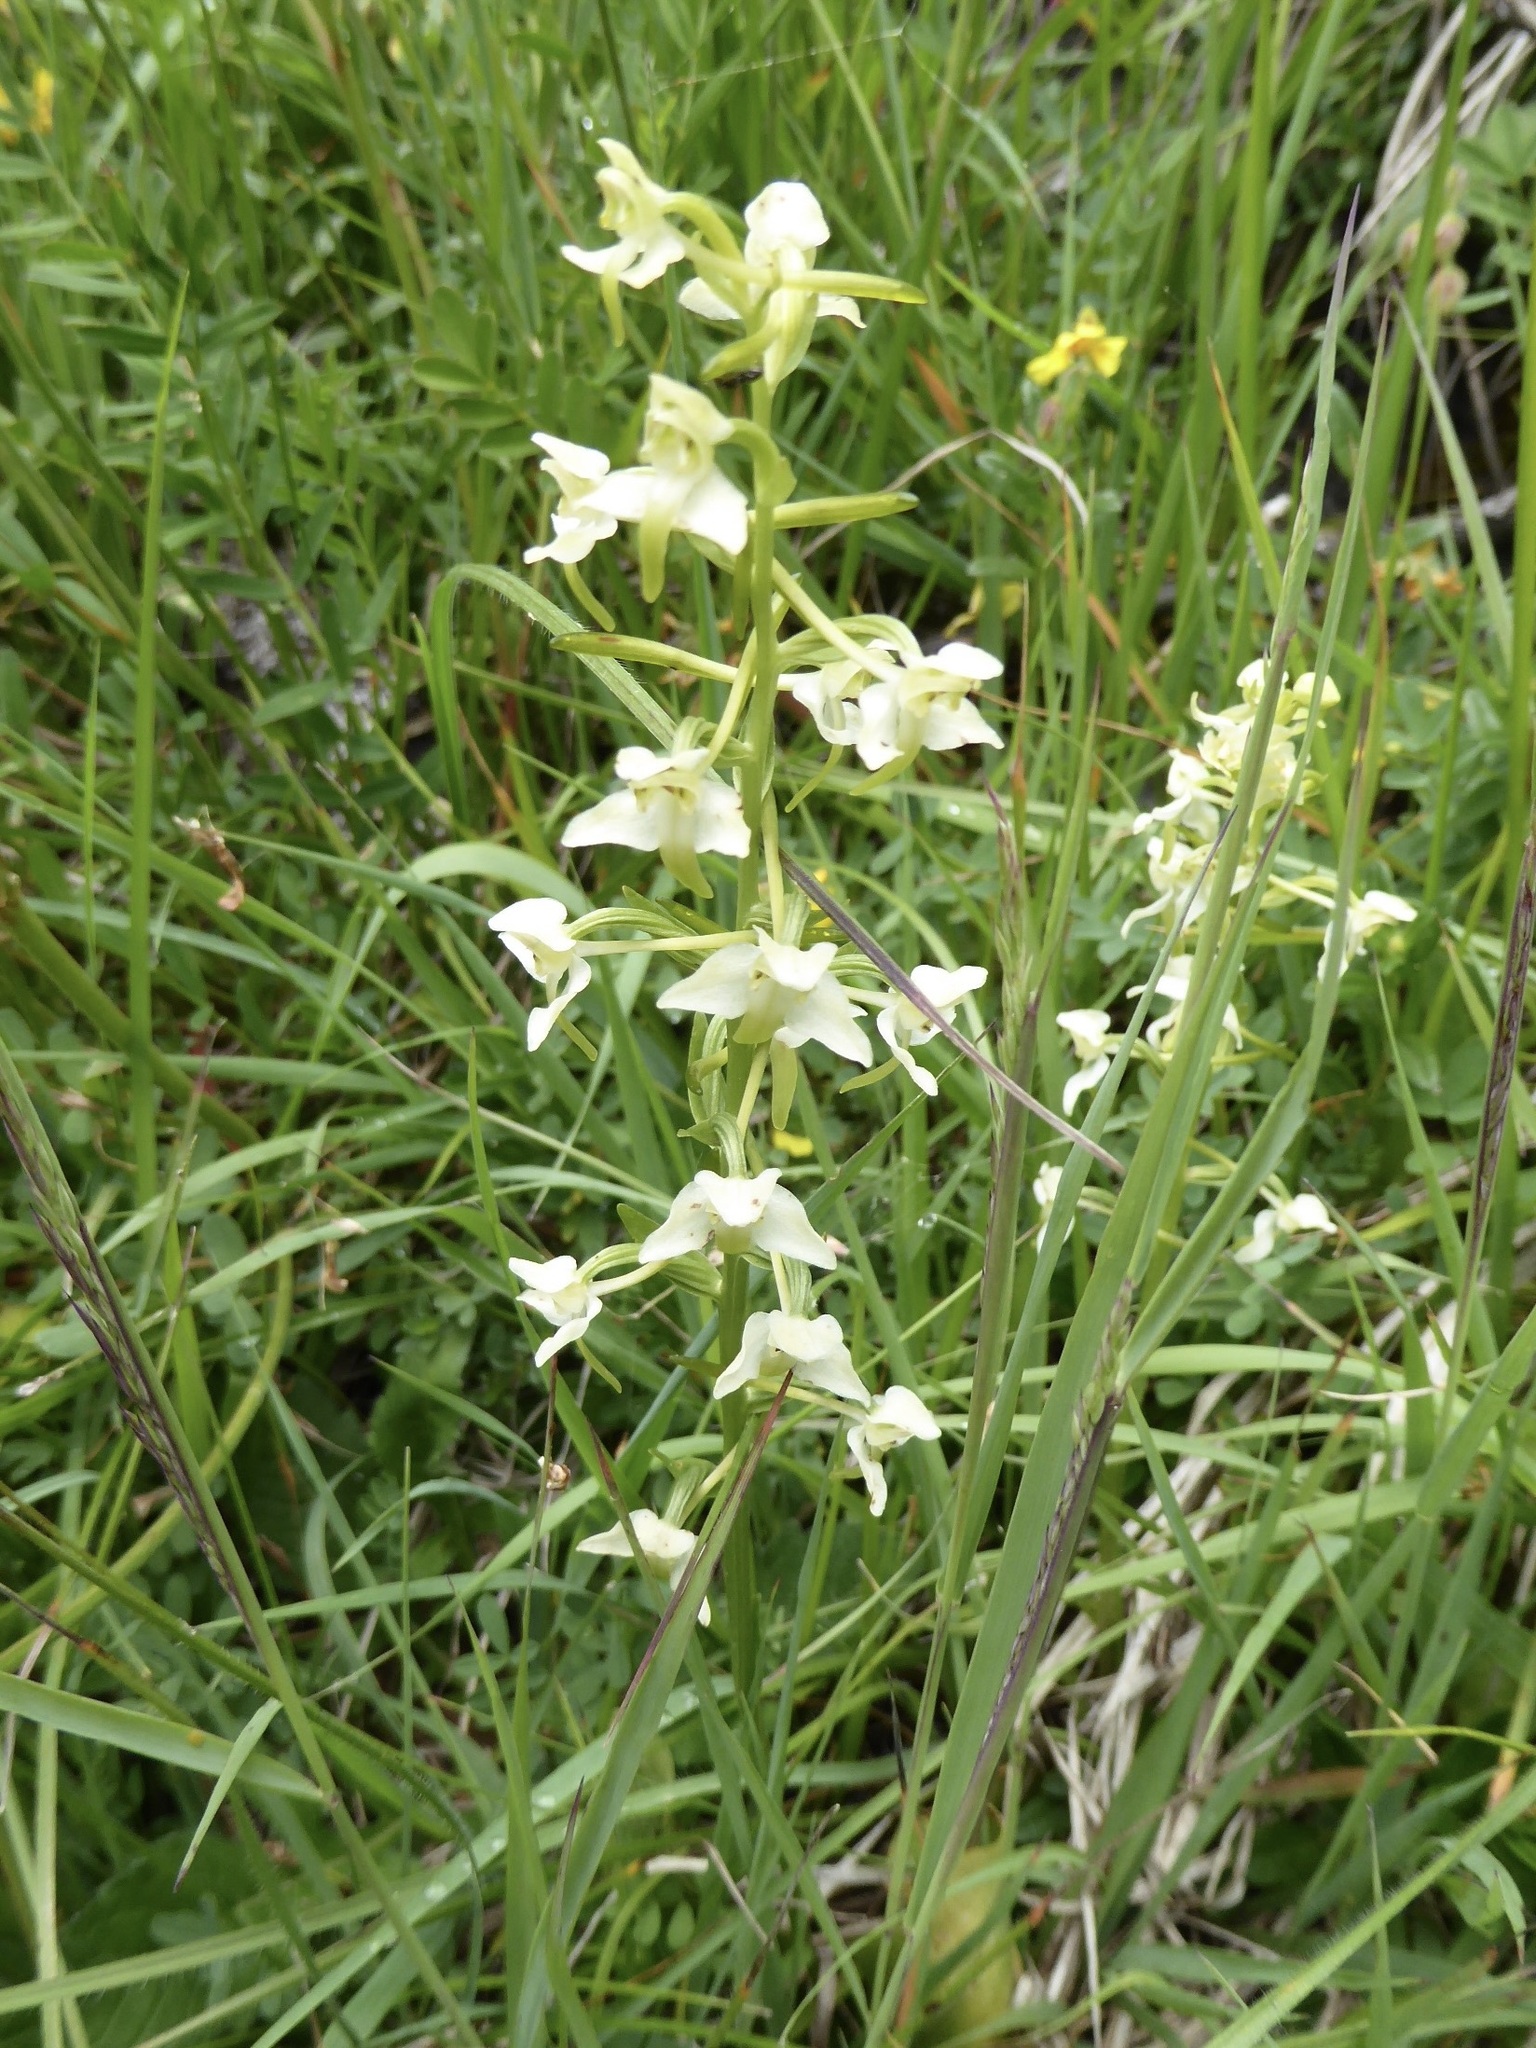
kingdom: Plantae
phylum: Tracheophyta
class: Liliopsida
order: Asparagales
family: Orchidaceae
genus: Platanthera
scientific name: Platanthera chlorantha
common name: Greater butterfly-orchid
